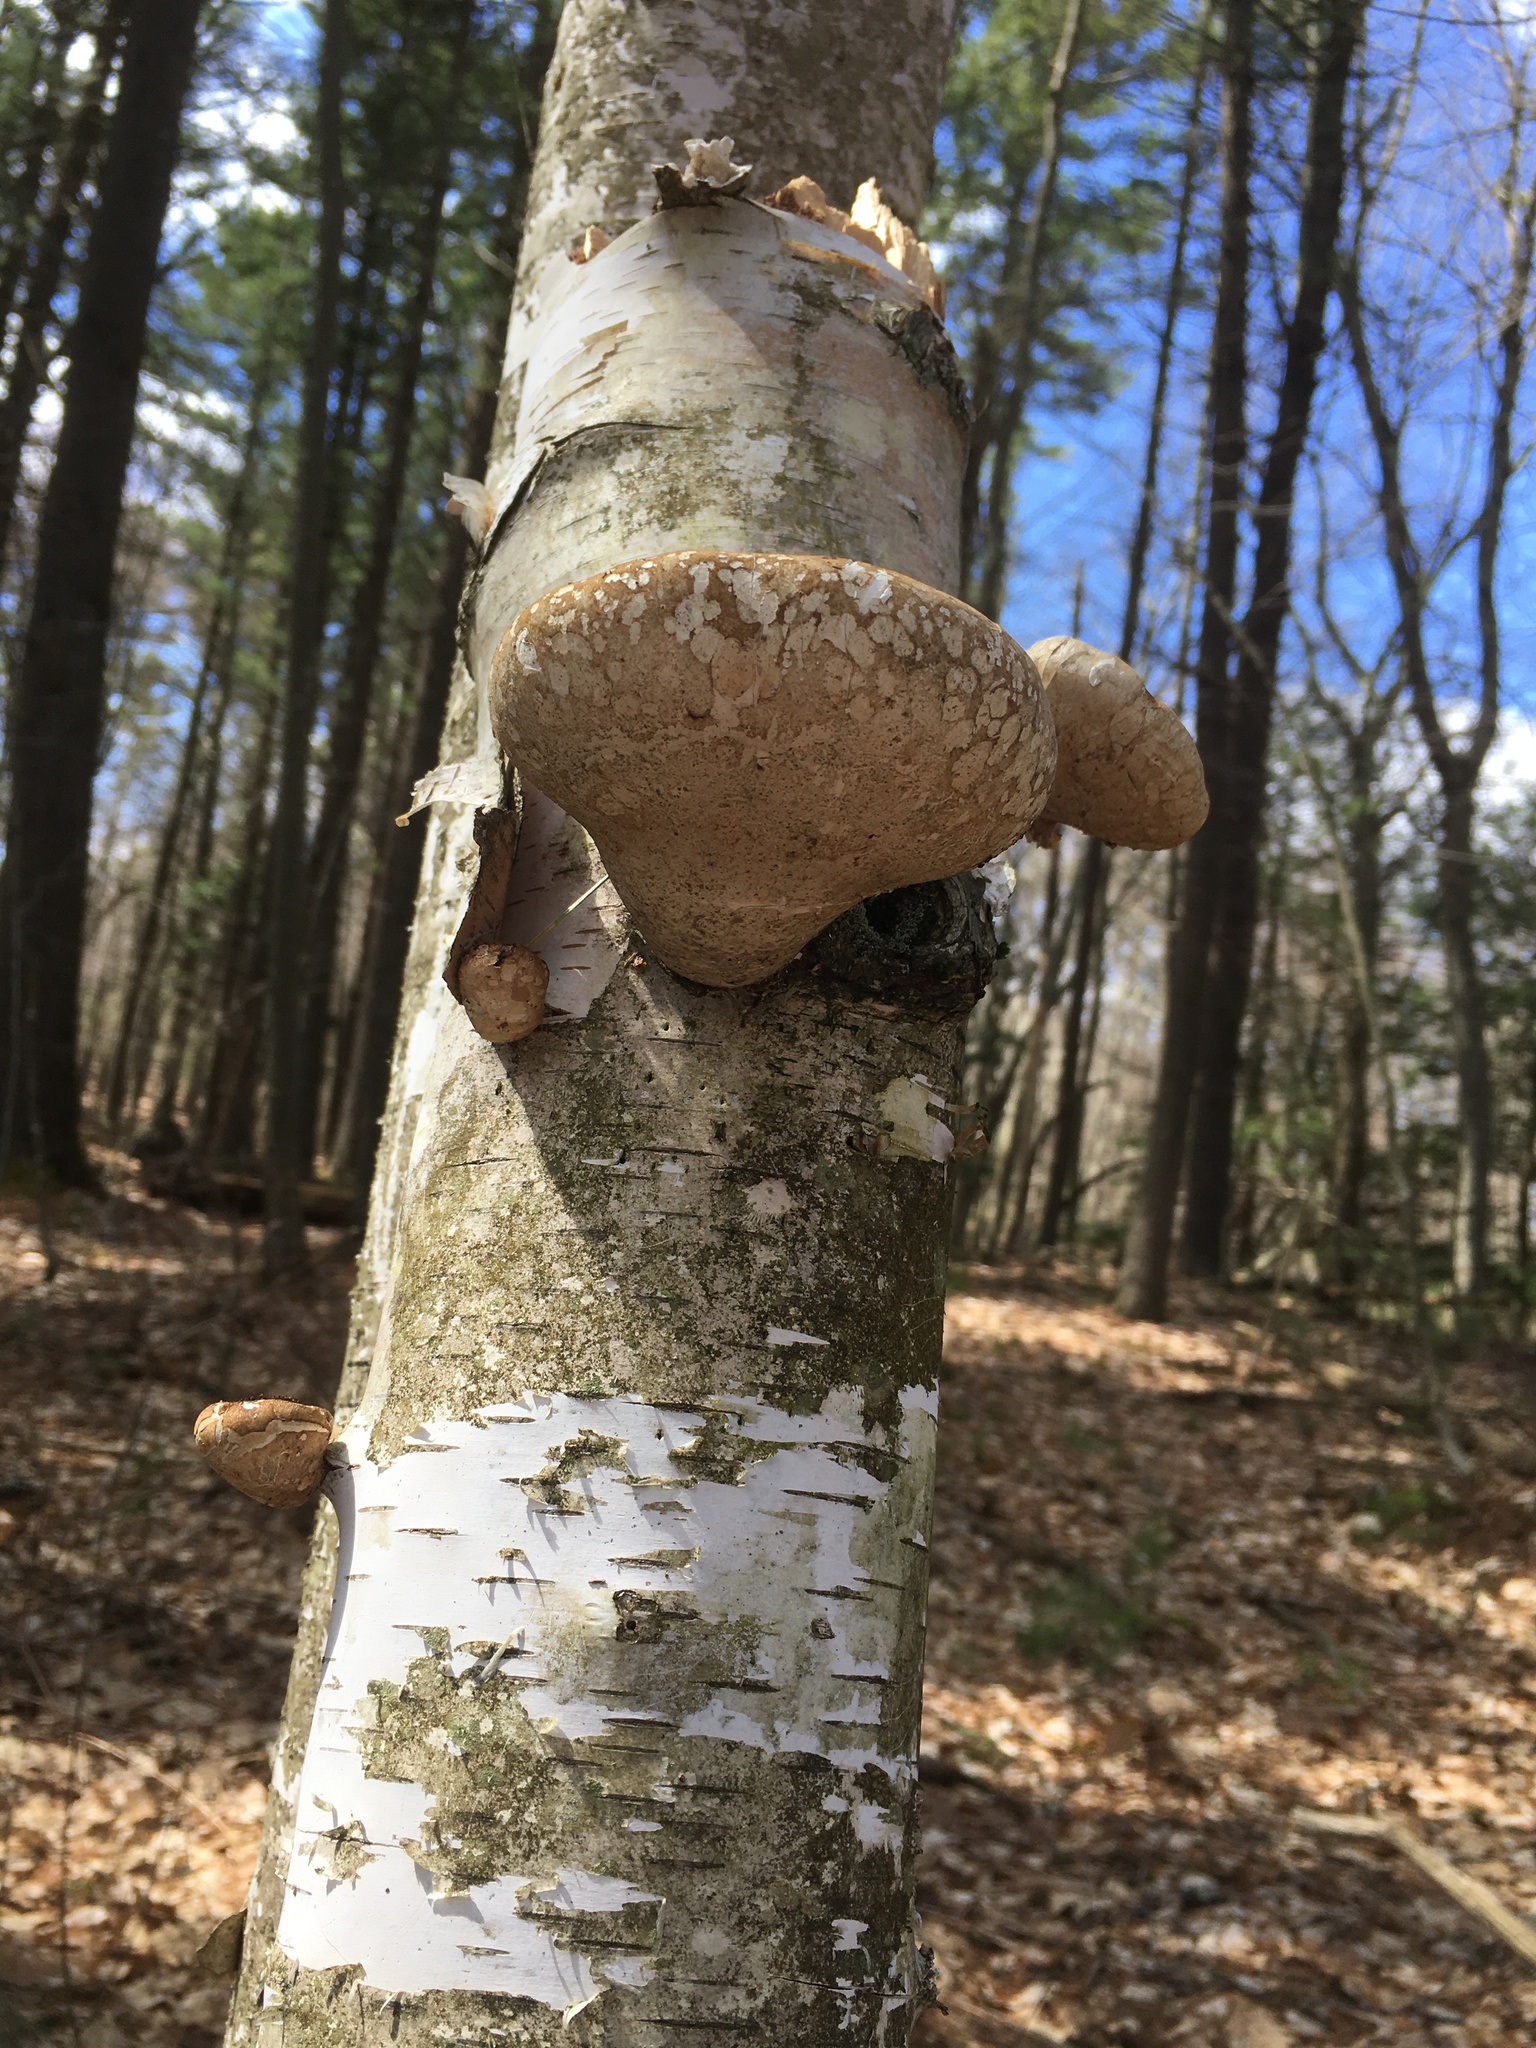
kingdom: Fungi
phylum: Basidiomycota
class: Agaricomycetes
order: Polyporales
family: Fomitopsidaceae
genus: Fomitopsis
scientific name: Fomitopsis betulina
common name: Birch polypore
